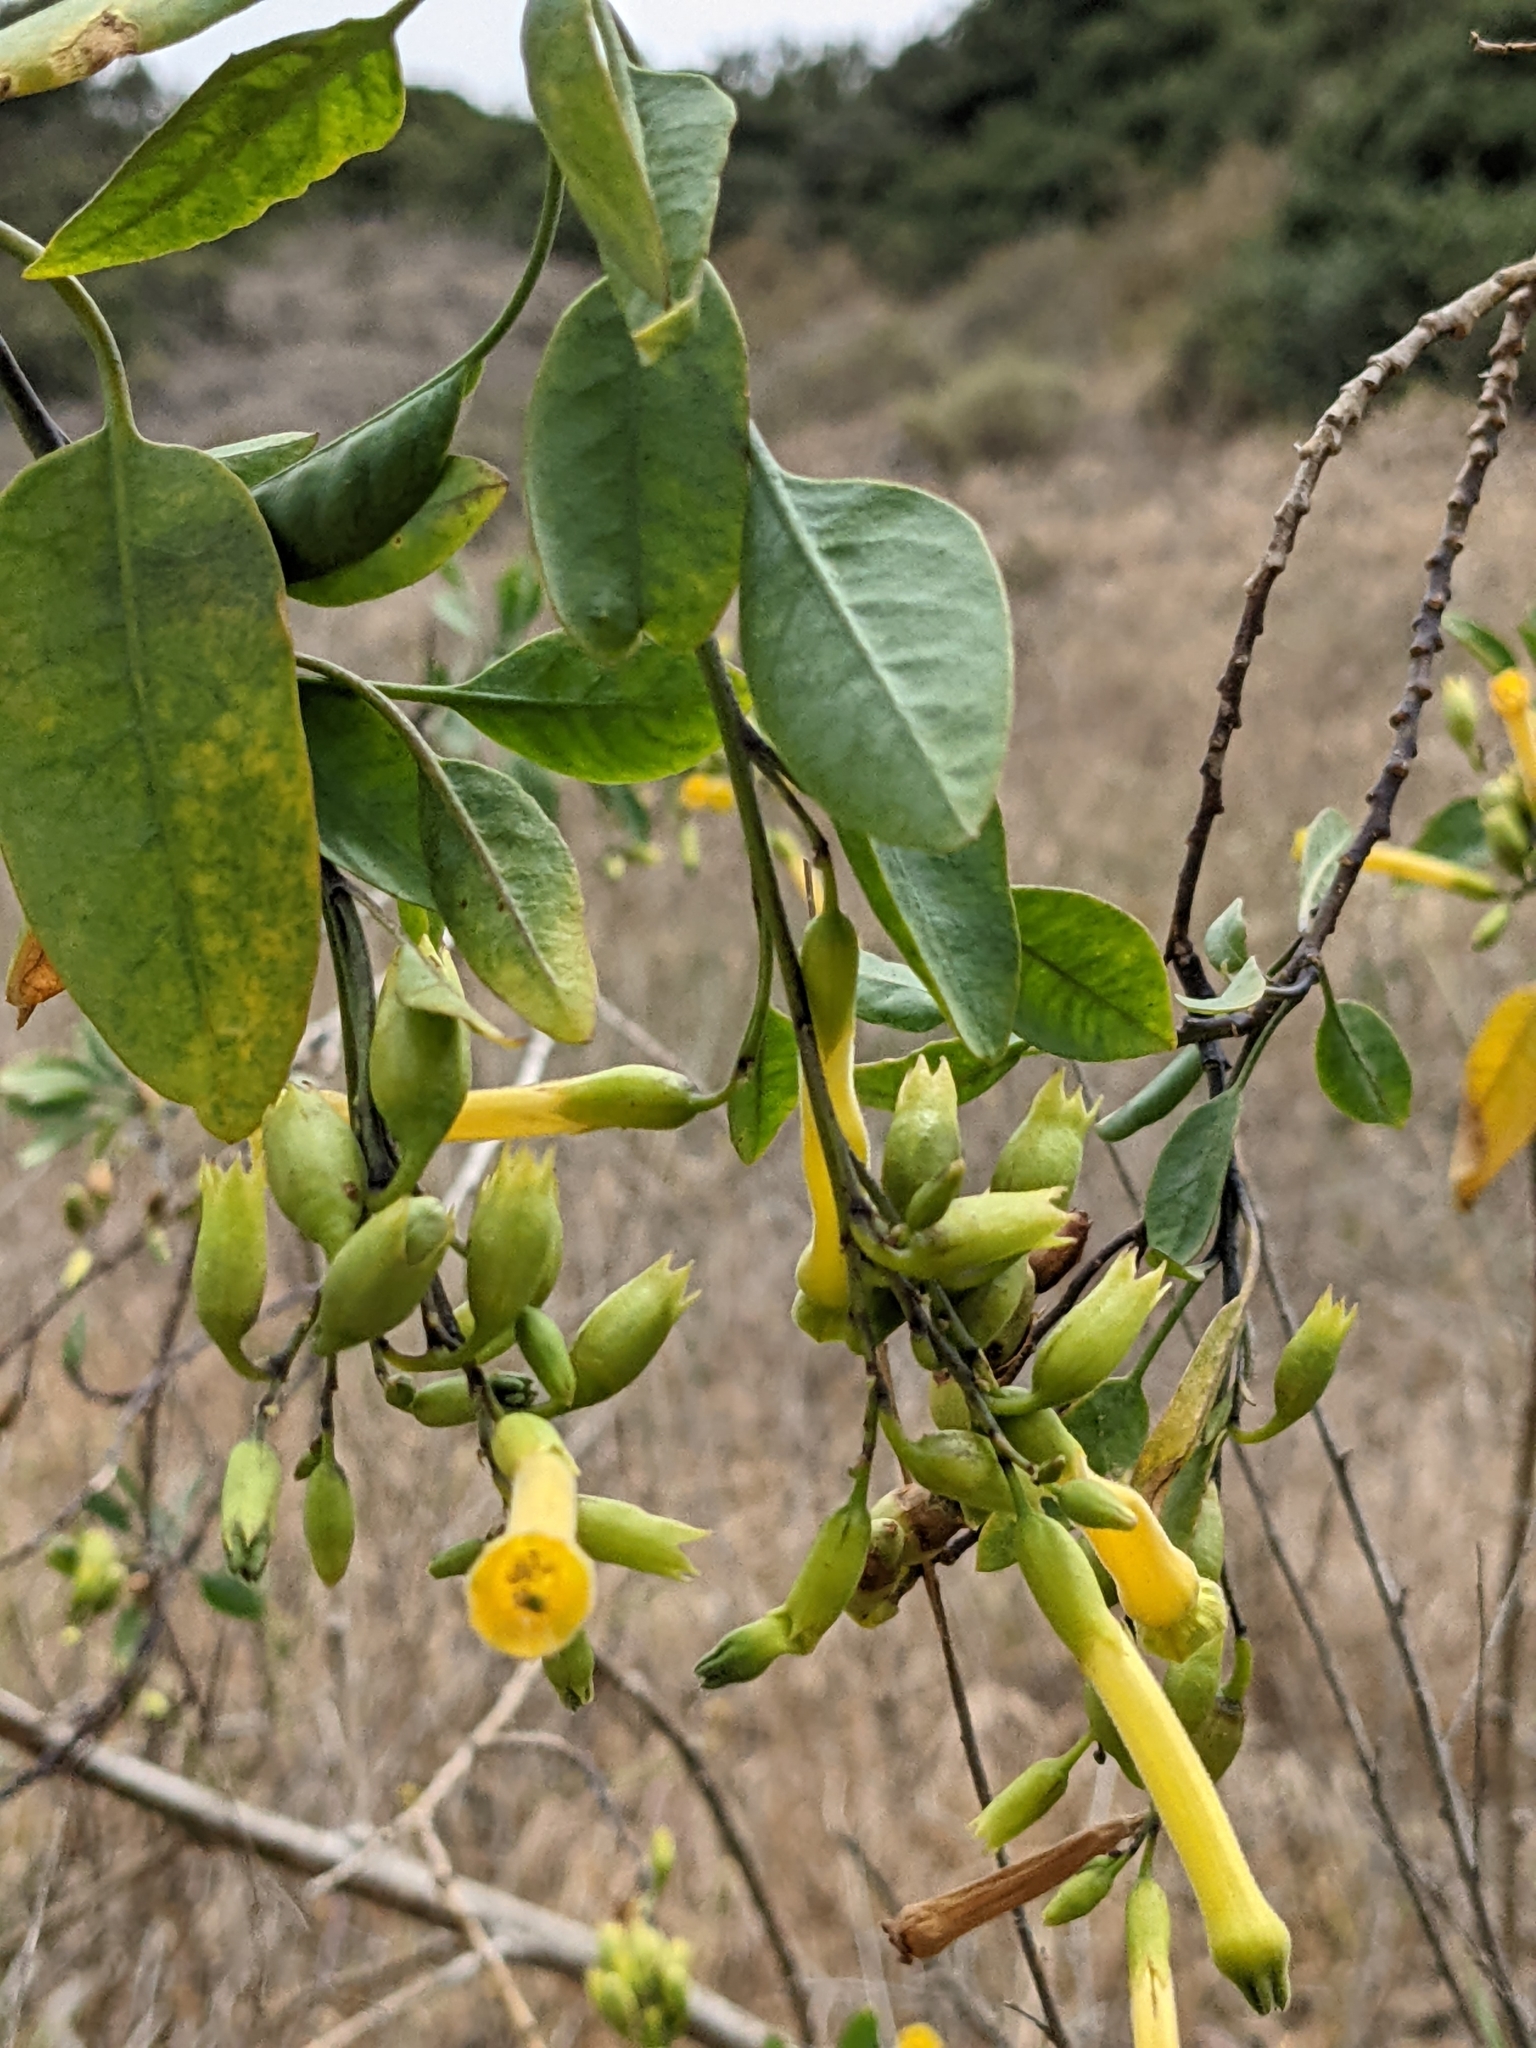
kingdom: Plantae
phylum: Tracheophyta
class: Magnoliopsida
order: Solanales
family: Solanaceae
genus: Nicotiana
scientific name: Nicotiana glauca
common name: Tree tobacco
